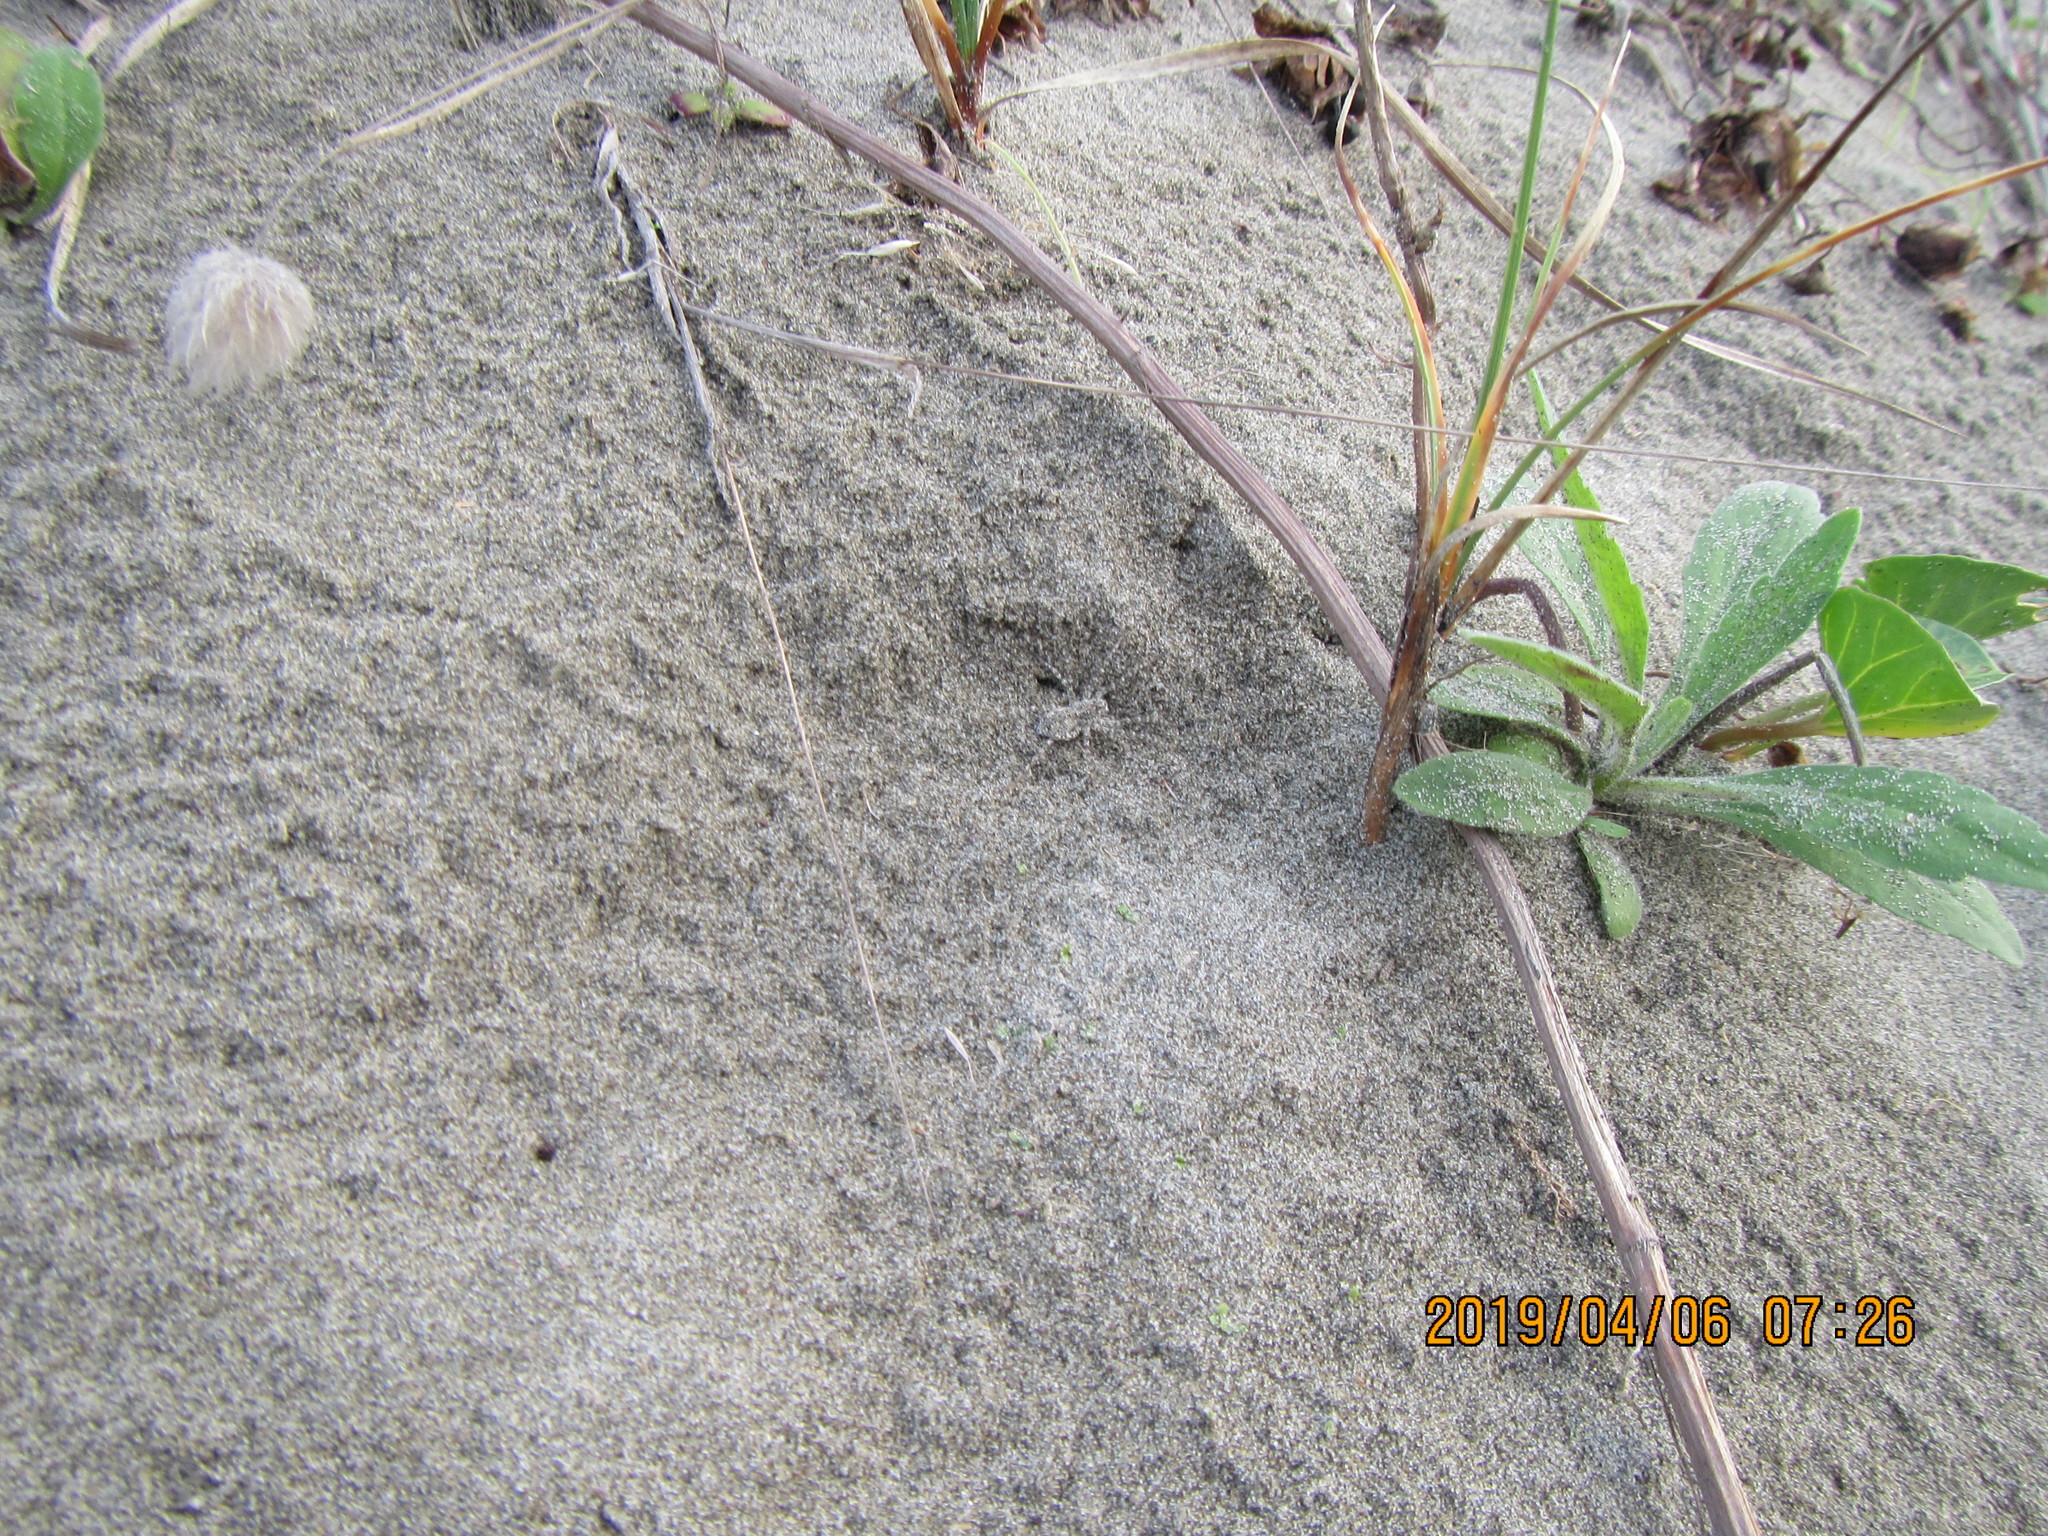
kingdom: Animalia
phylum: Arthropoda
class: Arachnida
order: Araneae
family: Lycosidae
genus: Anoteropsis
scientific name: Anoteropsis litoralis
